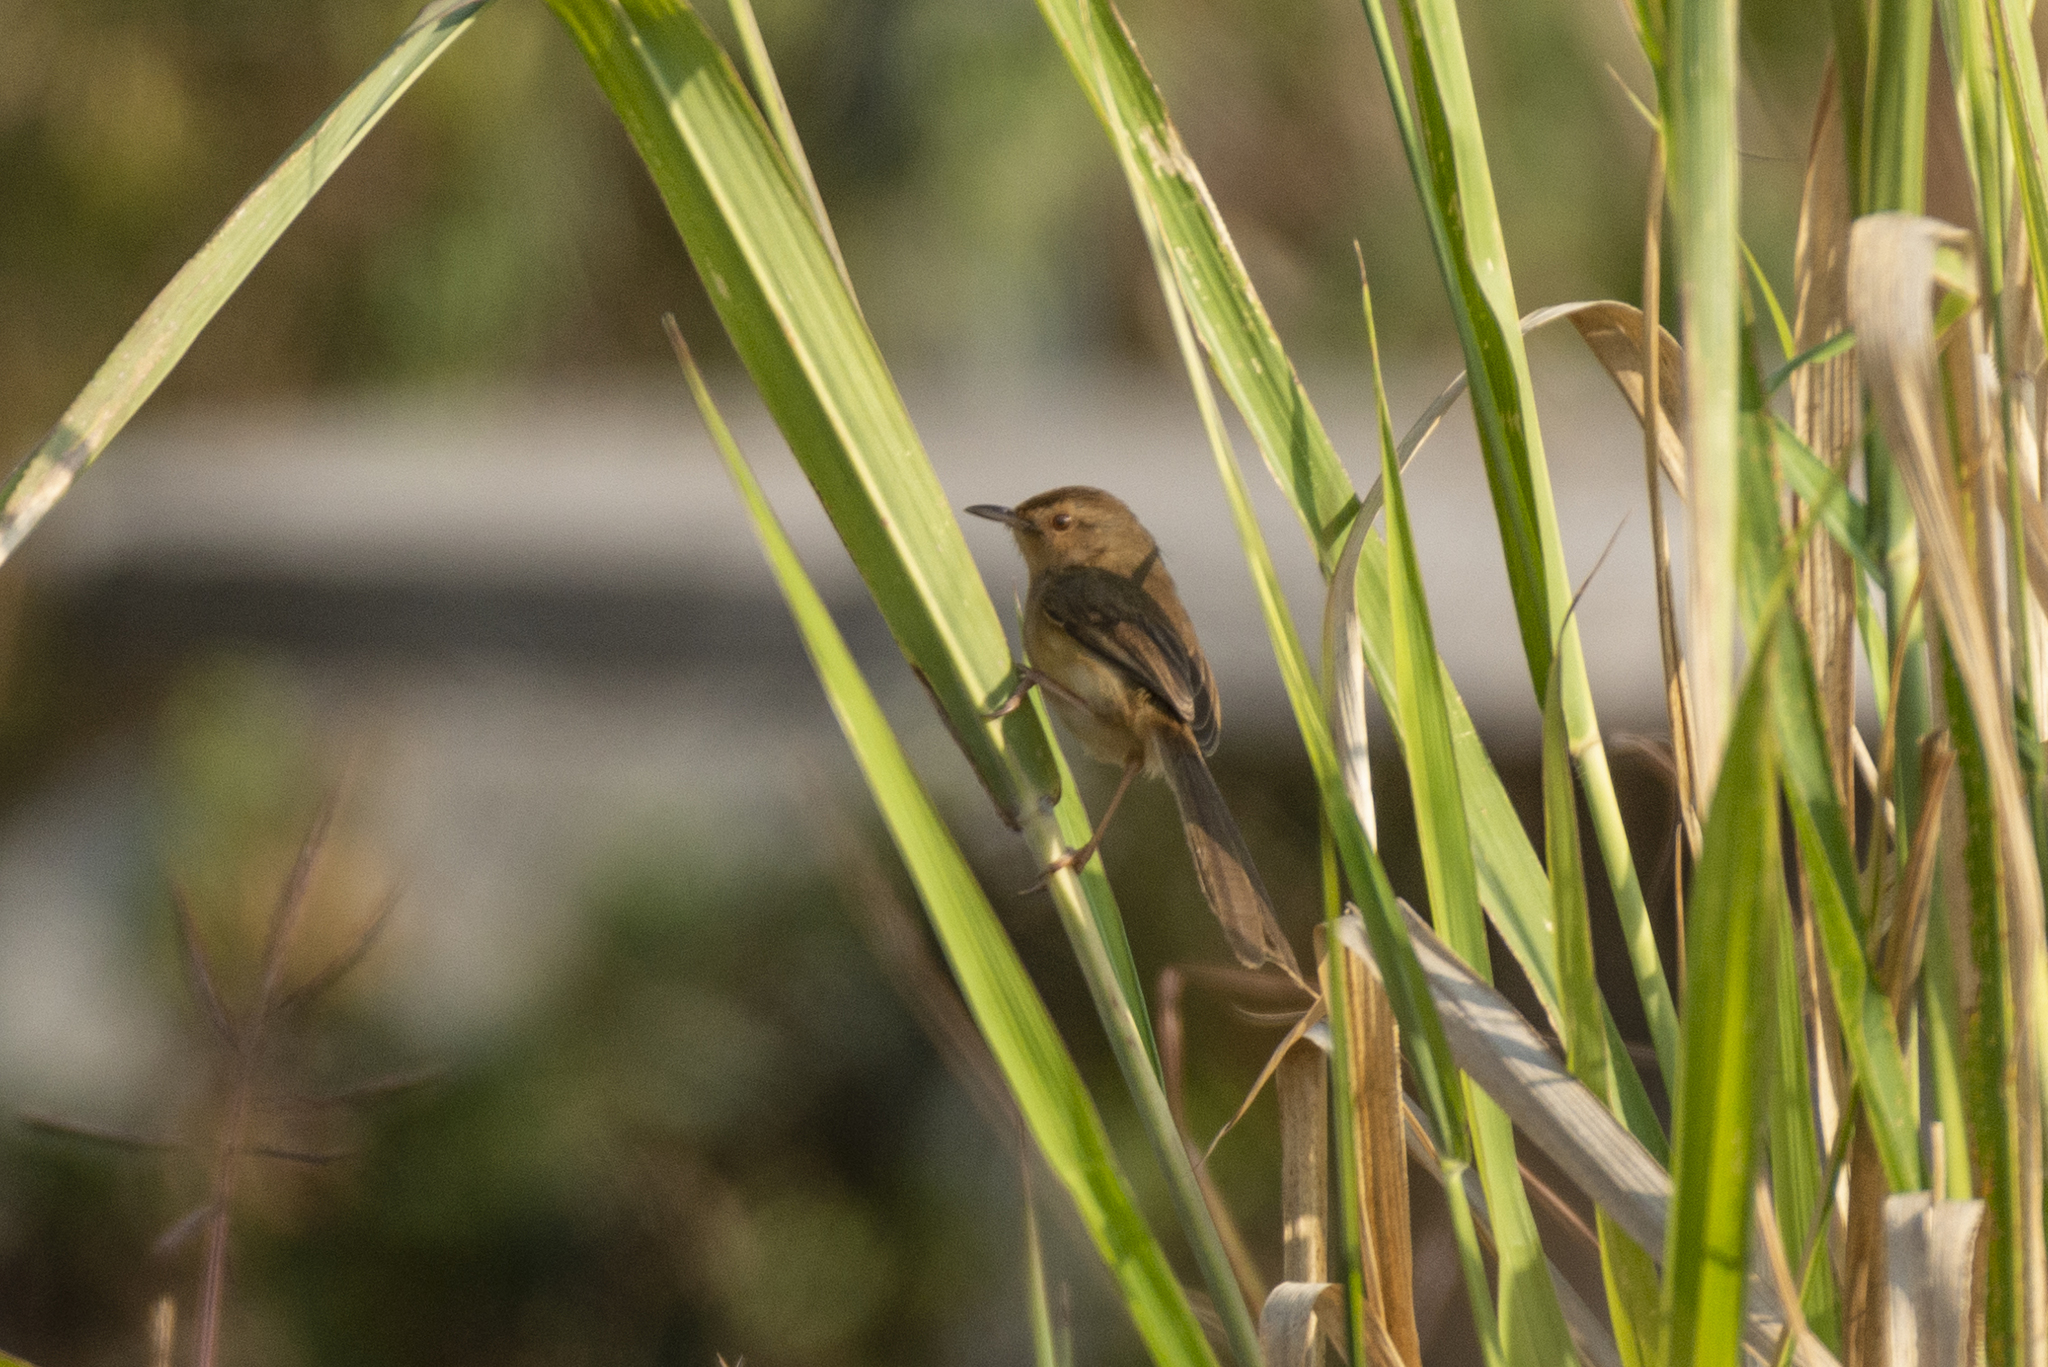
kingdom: Animalia
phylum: Chordata
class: Aves
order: Passeriformes
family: Cisticolidae
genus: Prinia
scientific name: Prinia inornata
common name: Plain prinia
